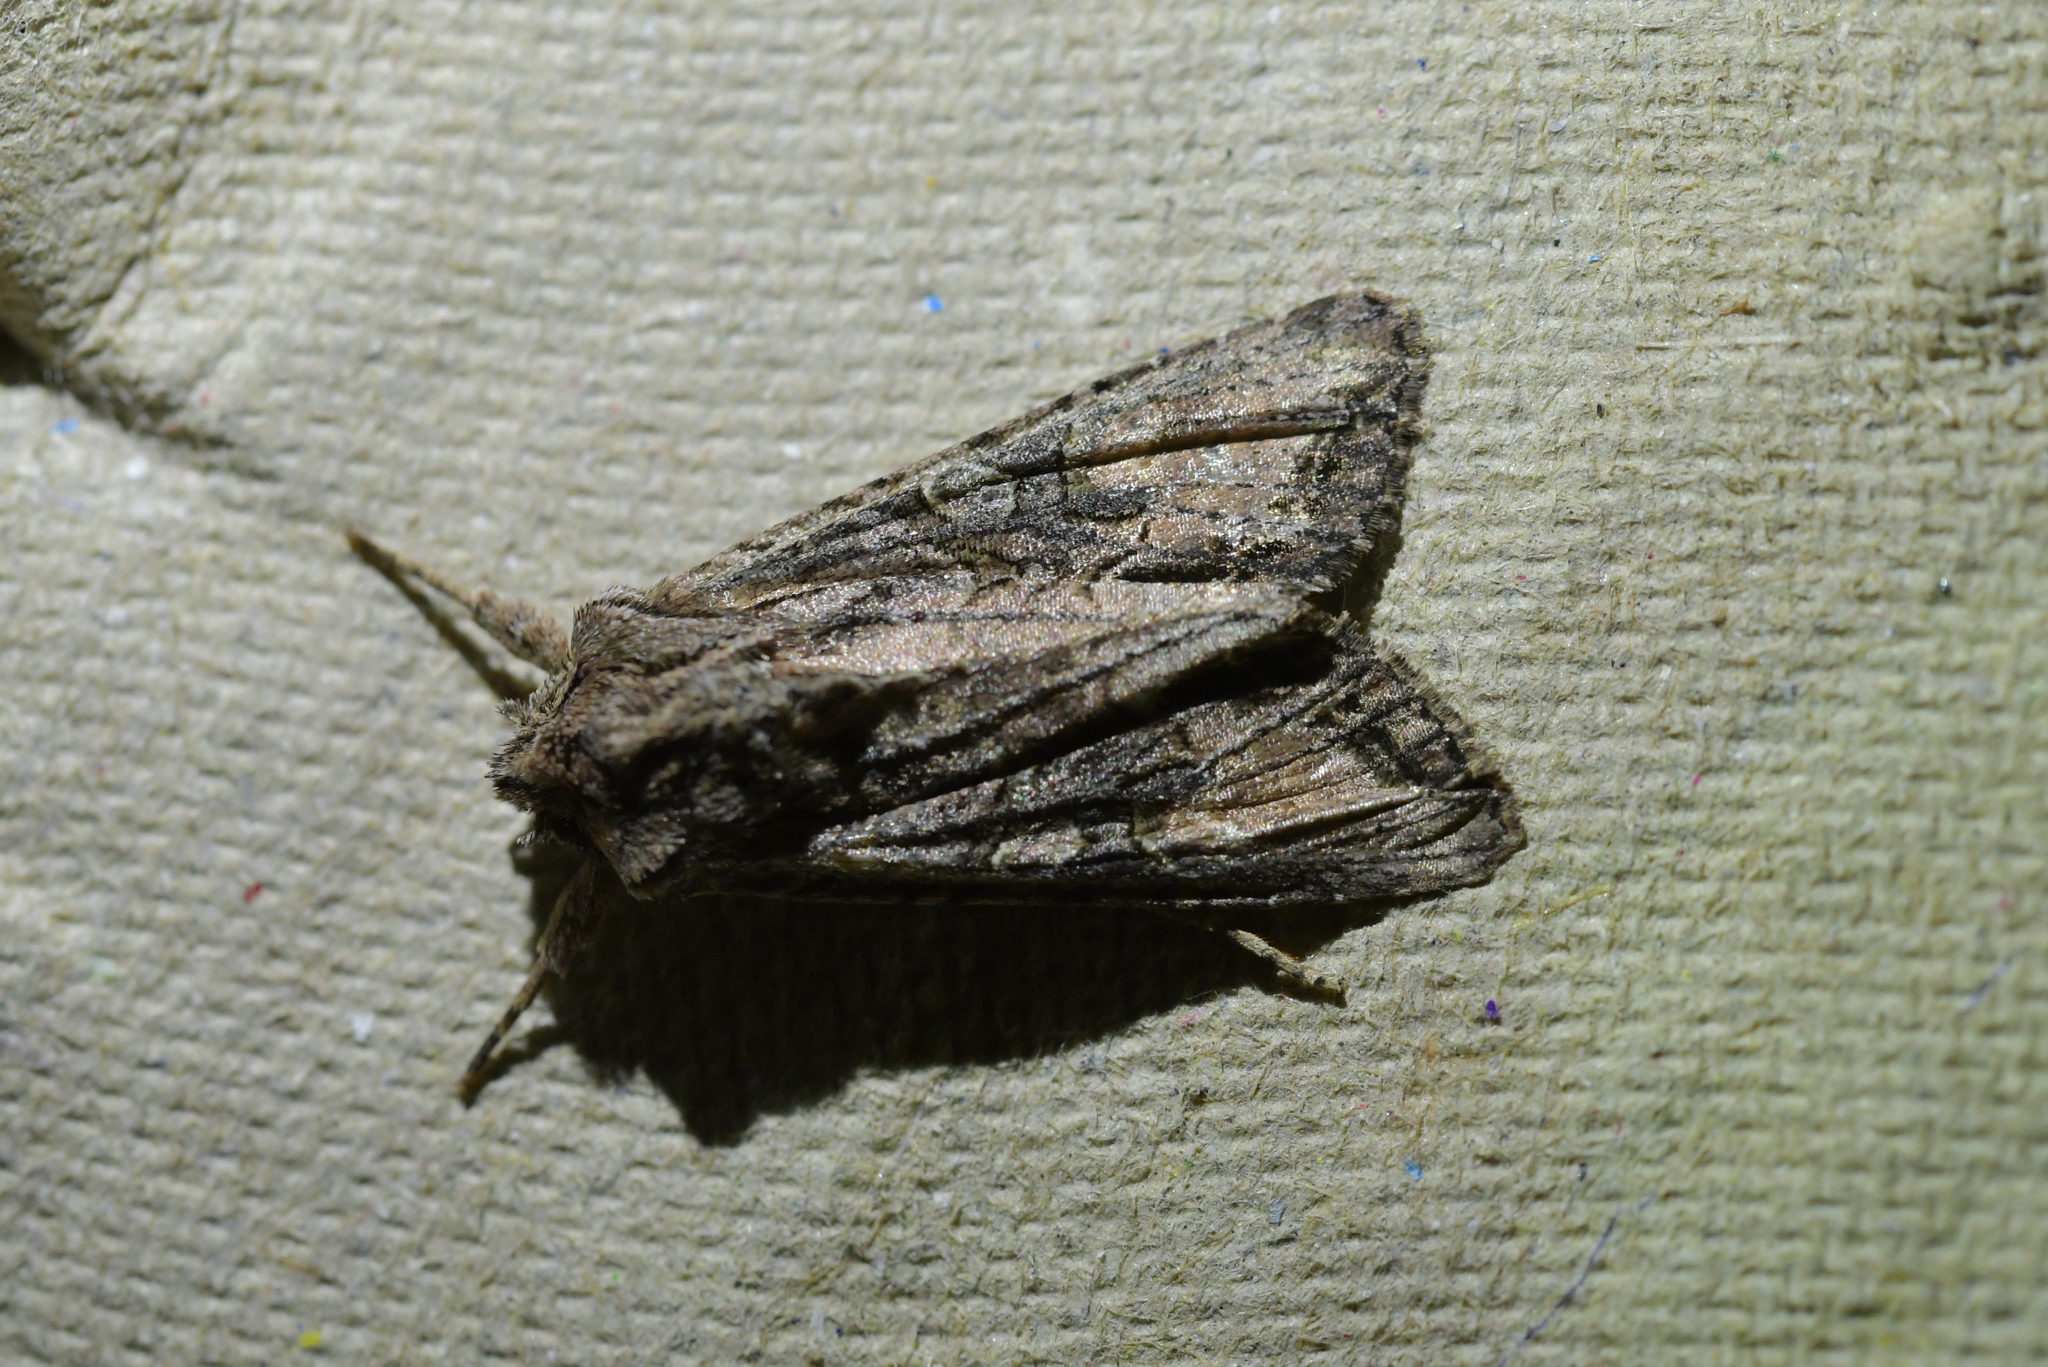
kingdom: Animalia
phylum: Arthropoda
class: Insecta
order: Lepidoptera
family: Noctuidae
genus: Ichneutica
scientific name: Ichneutica mutans
